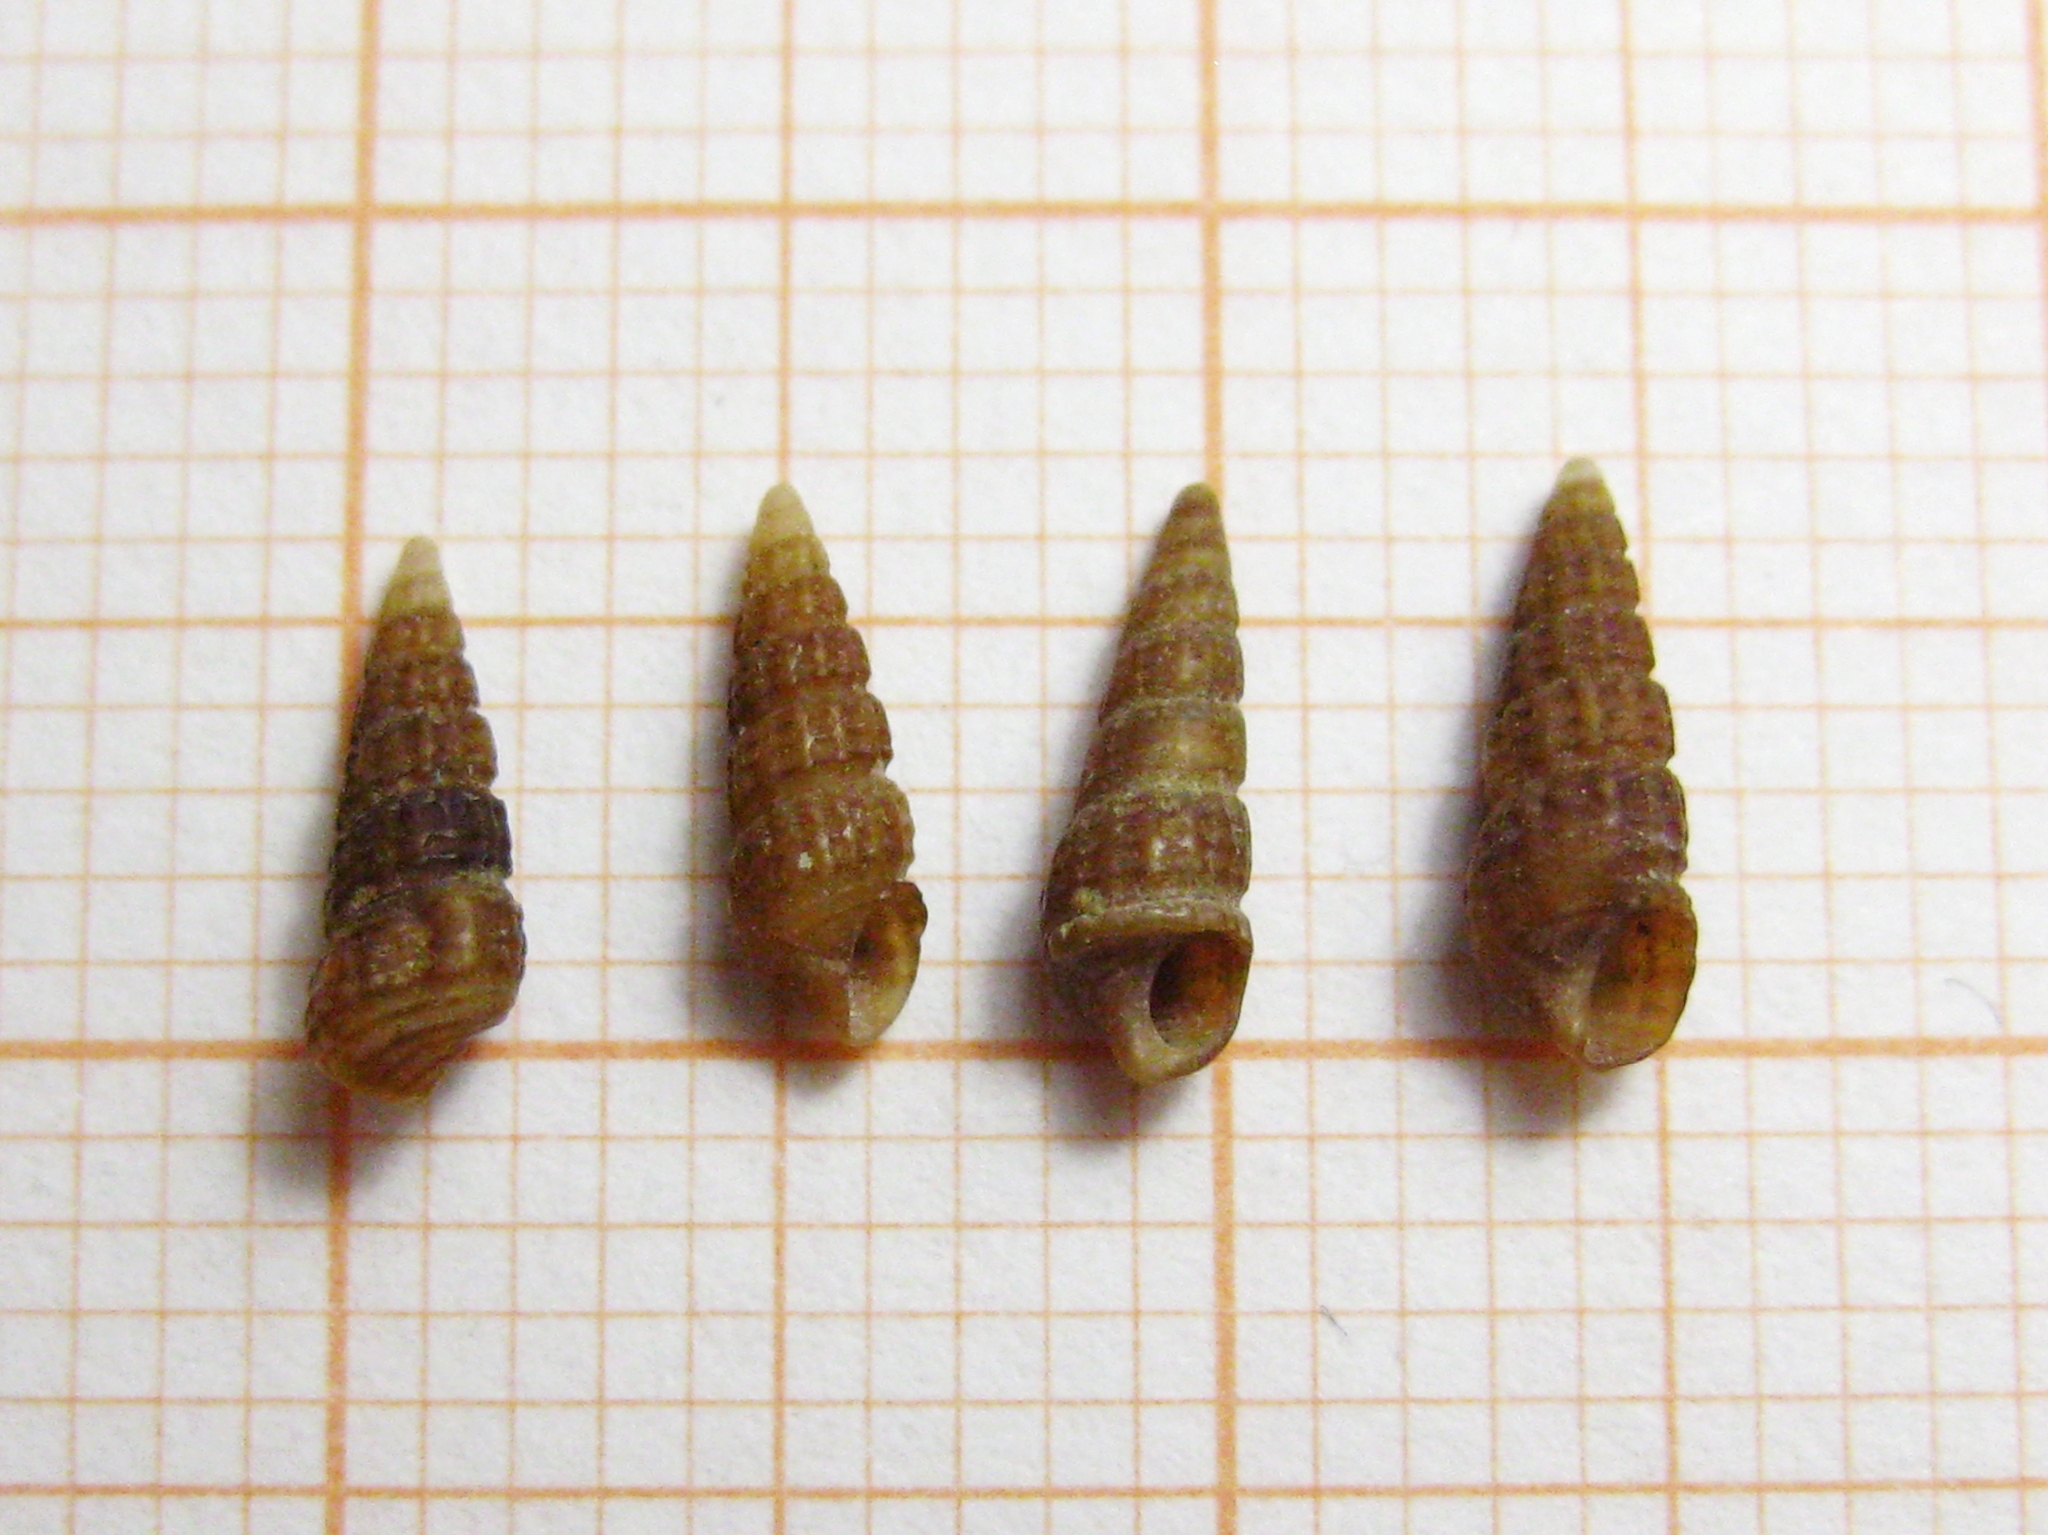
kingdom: Animalia
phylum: Mollusca
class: Gastropoda
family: Cerithiidae
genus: Bittium
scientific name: Bittium reticulatum
